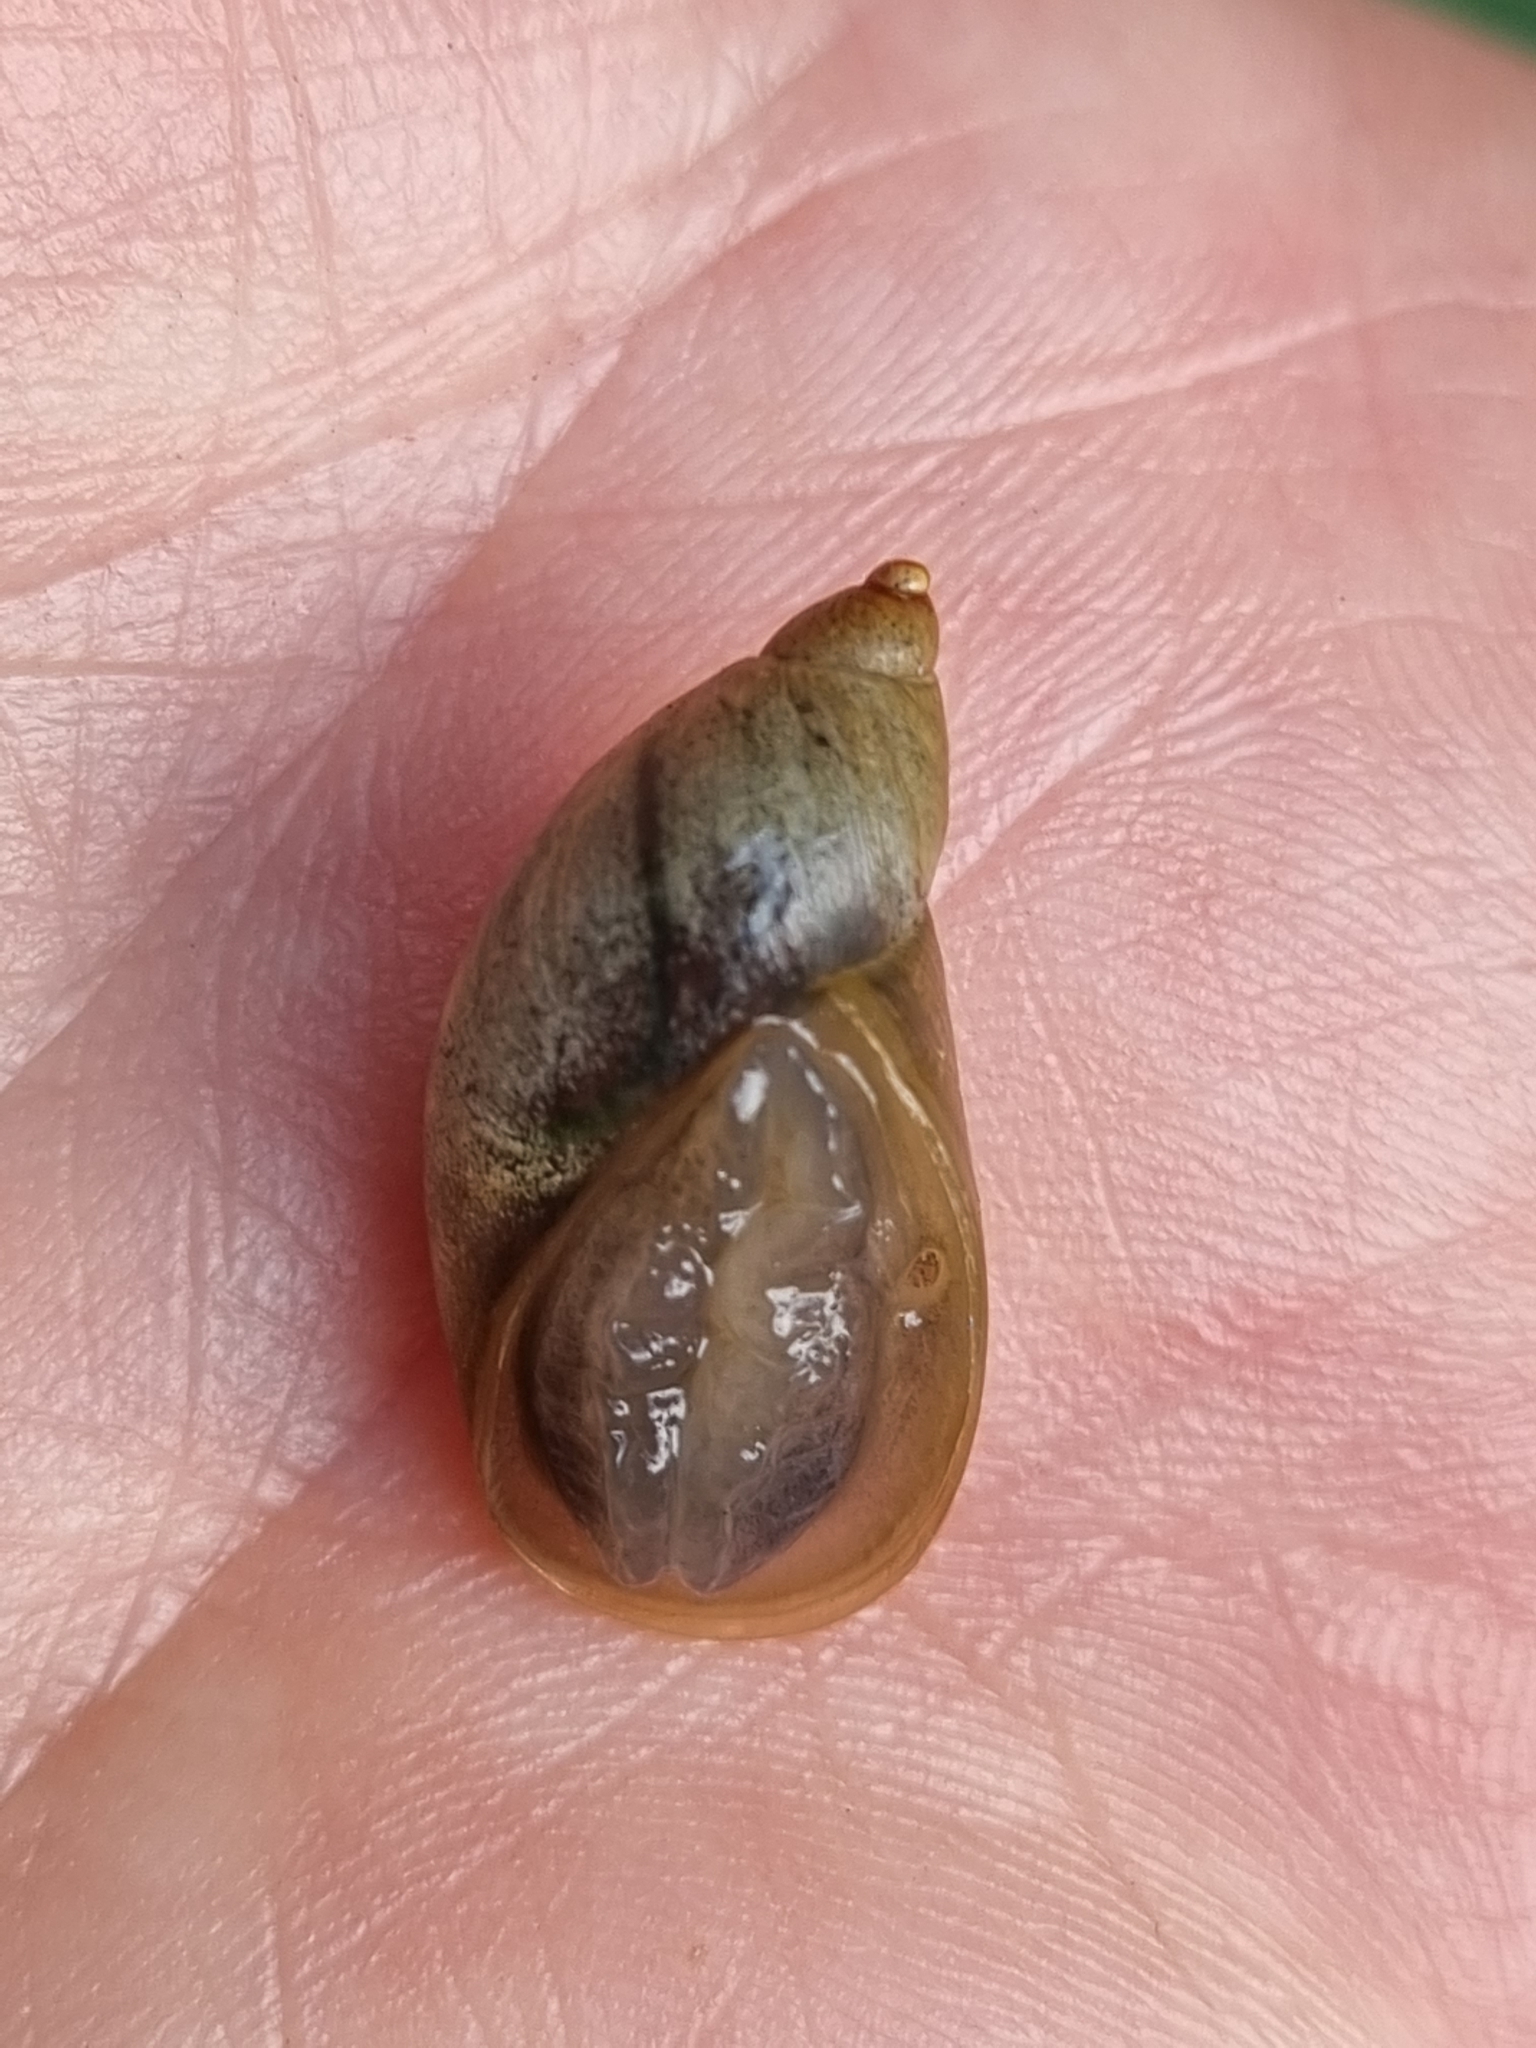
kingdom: Animalia
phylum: Mollusca
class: Gastropoda
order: Stylommatophora
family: Succineidae
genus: Succinea
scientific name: Succinea putris
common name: European ambersnail
